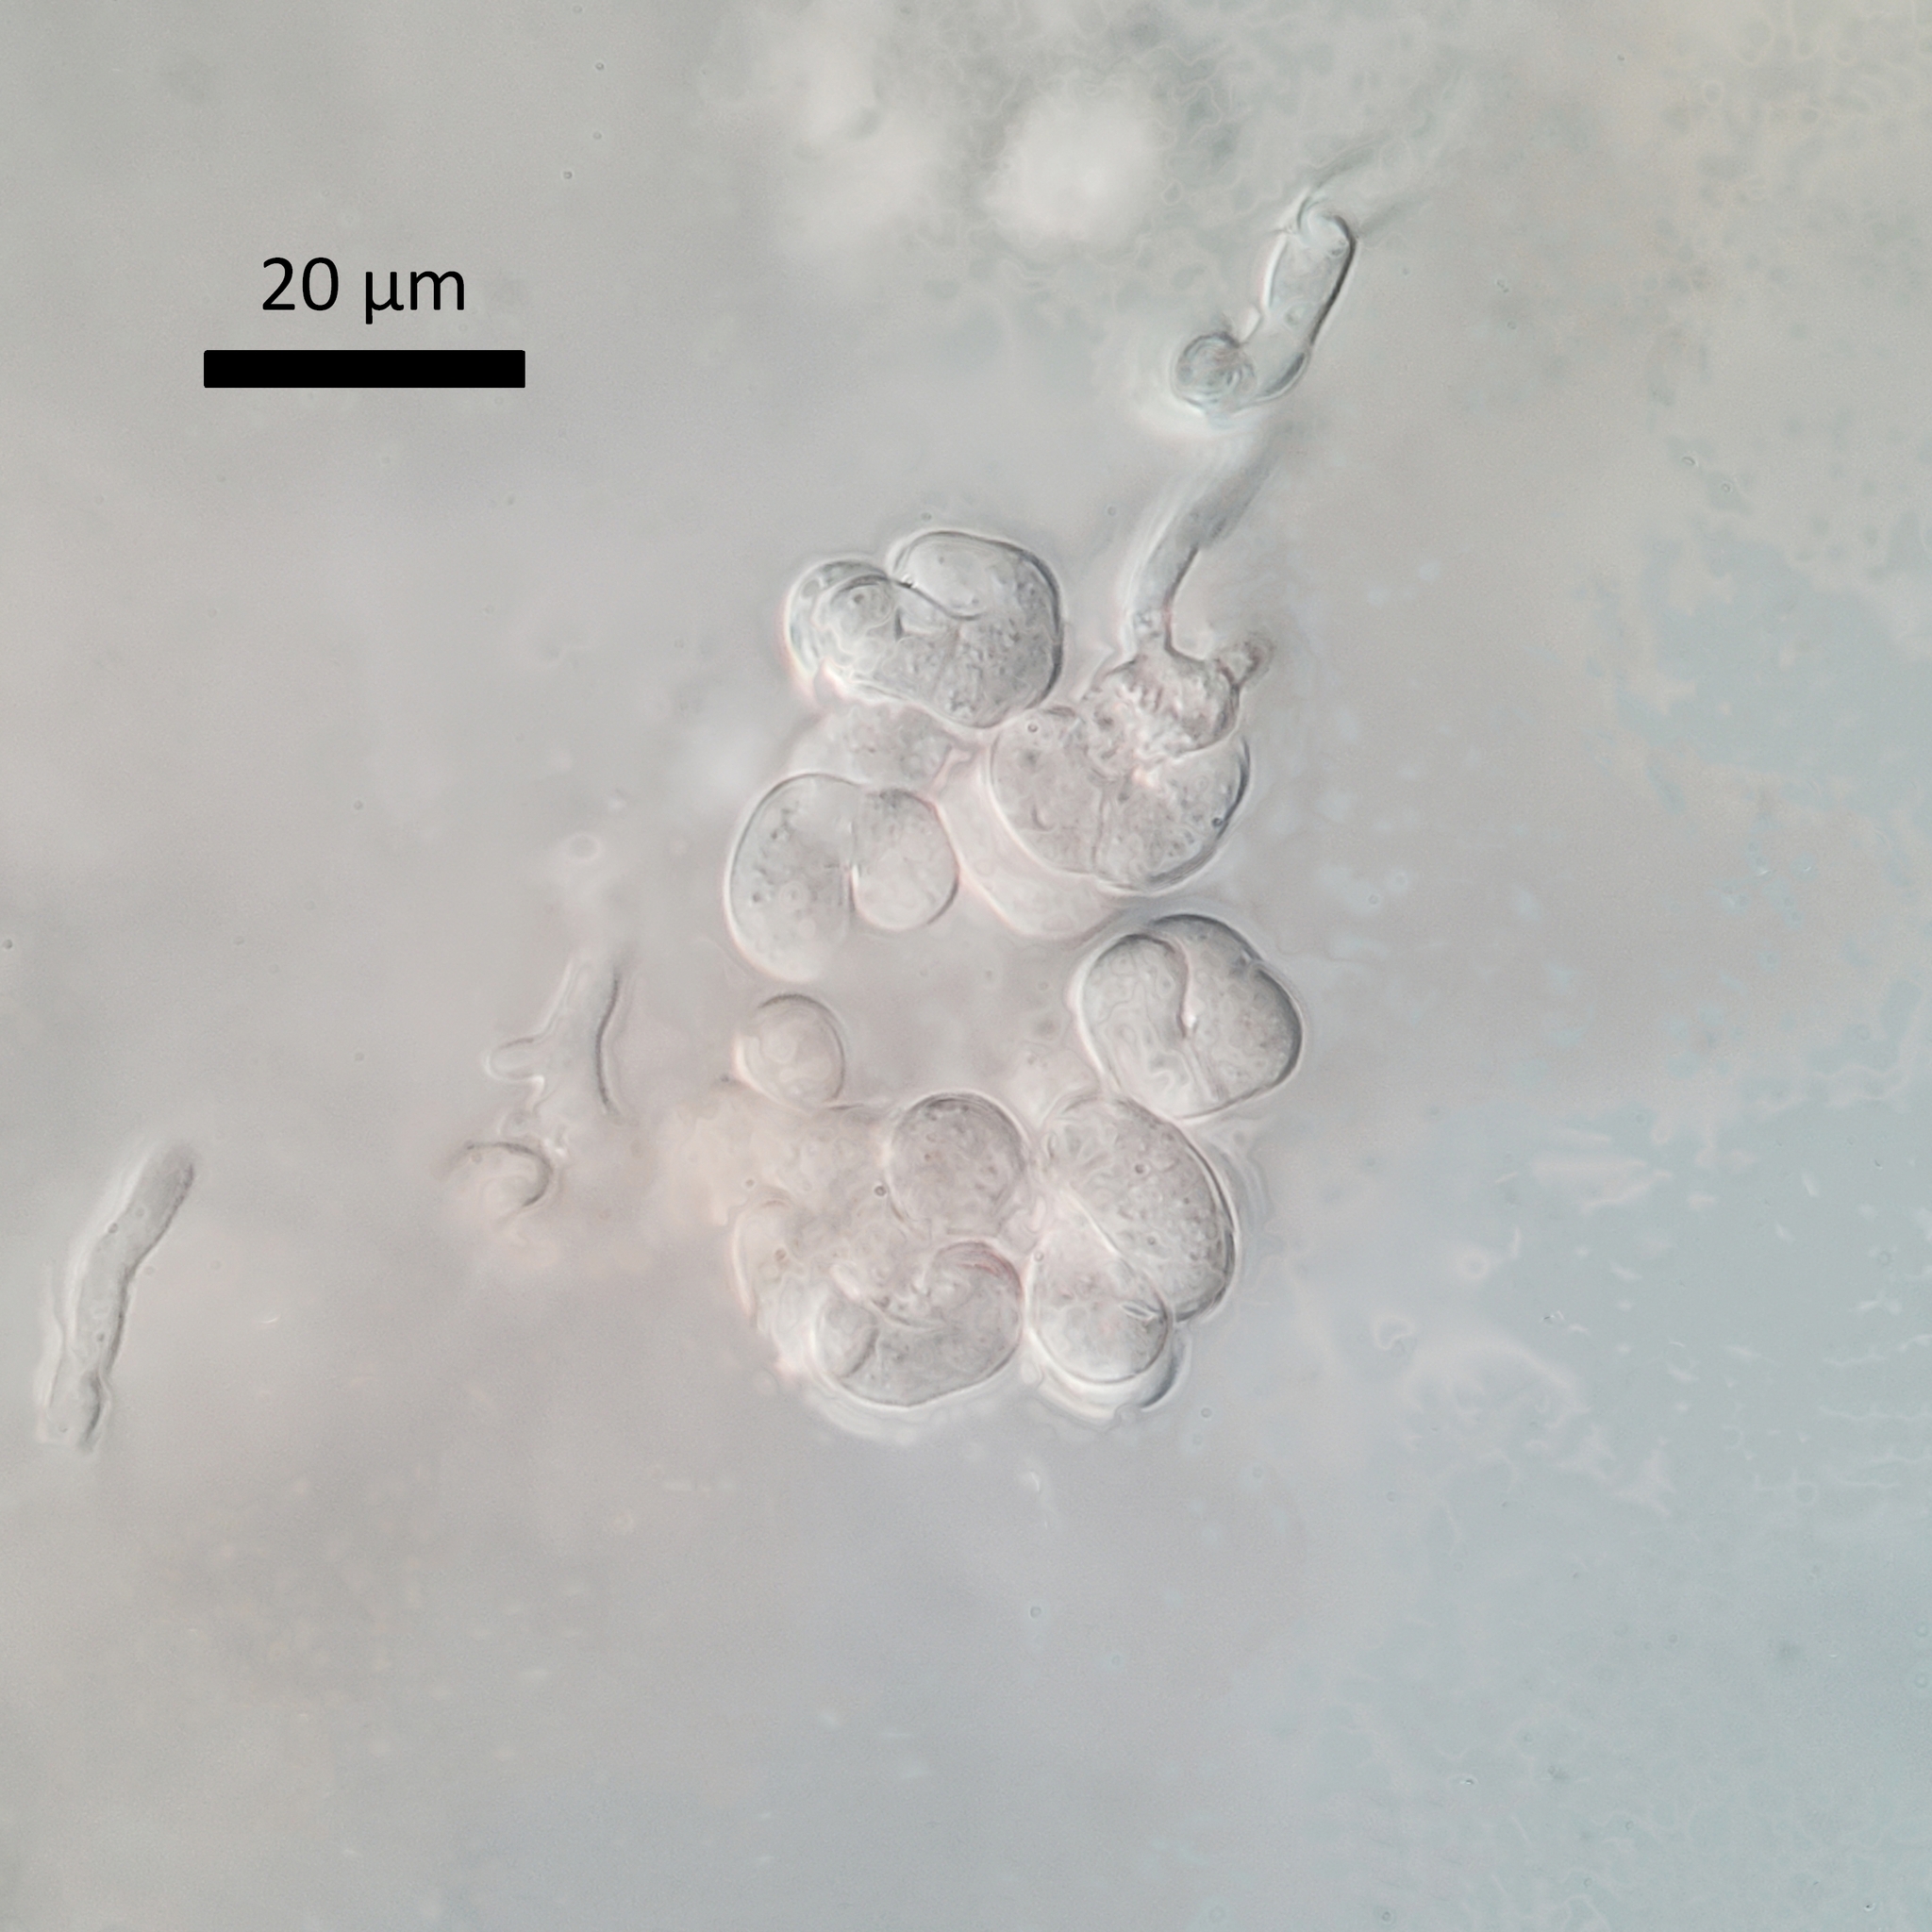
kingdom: Fungi
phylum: Ascomycota
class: Sordariomycetes
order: Hypocreales
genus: Illosporiopsis
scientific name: Illosporiopsis christiansenii
